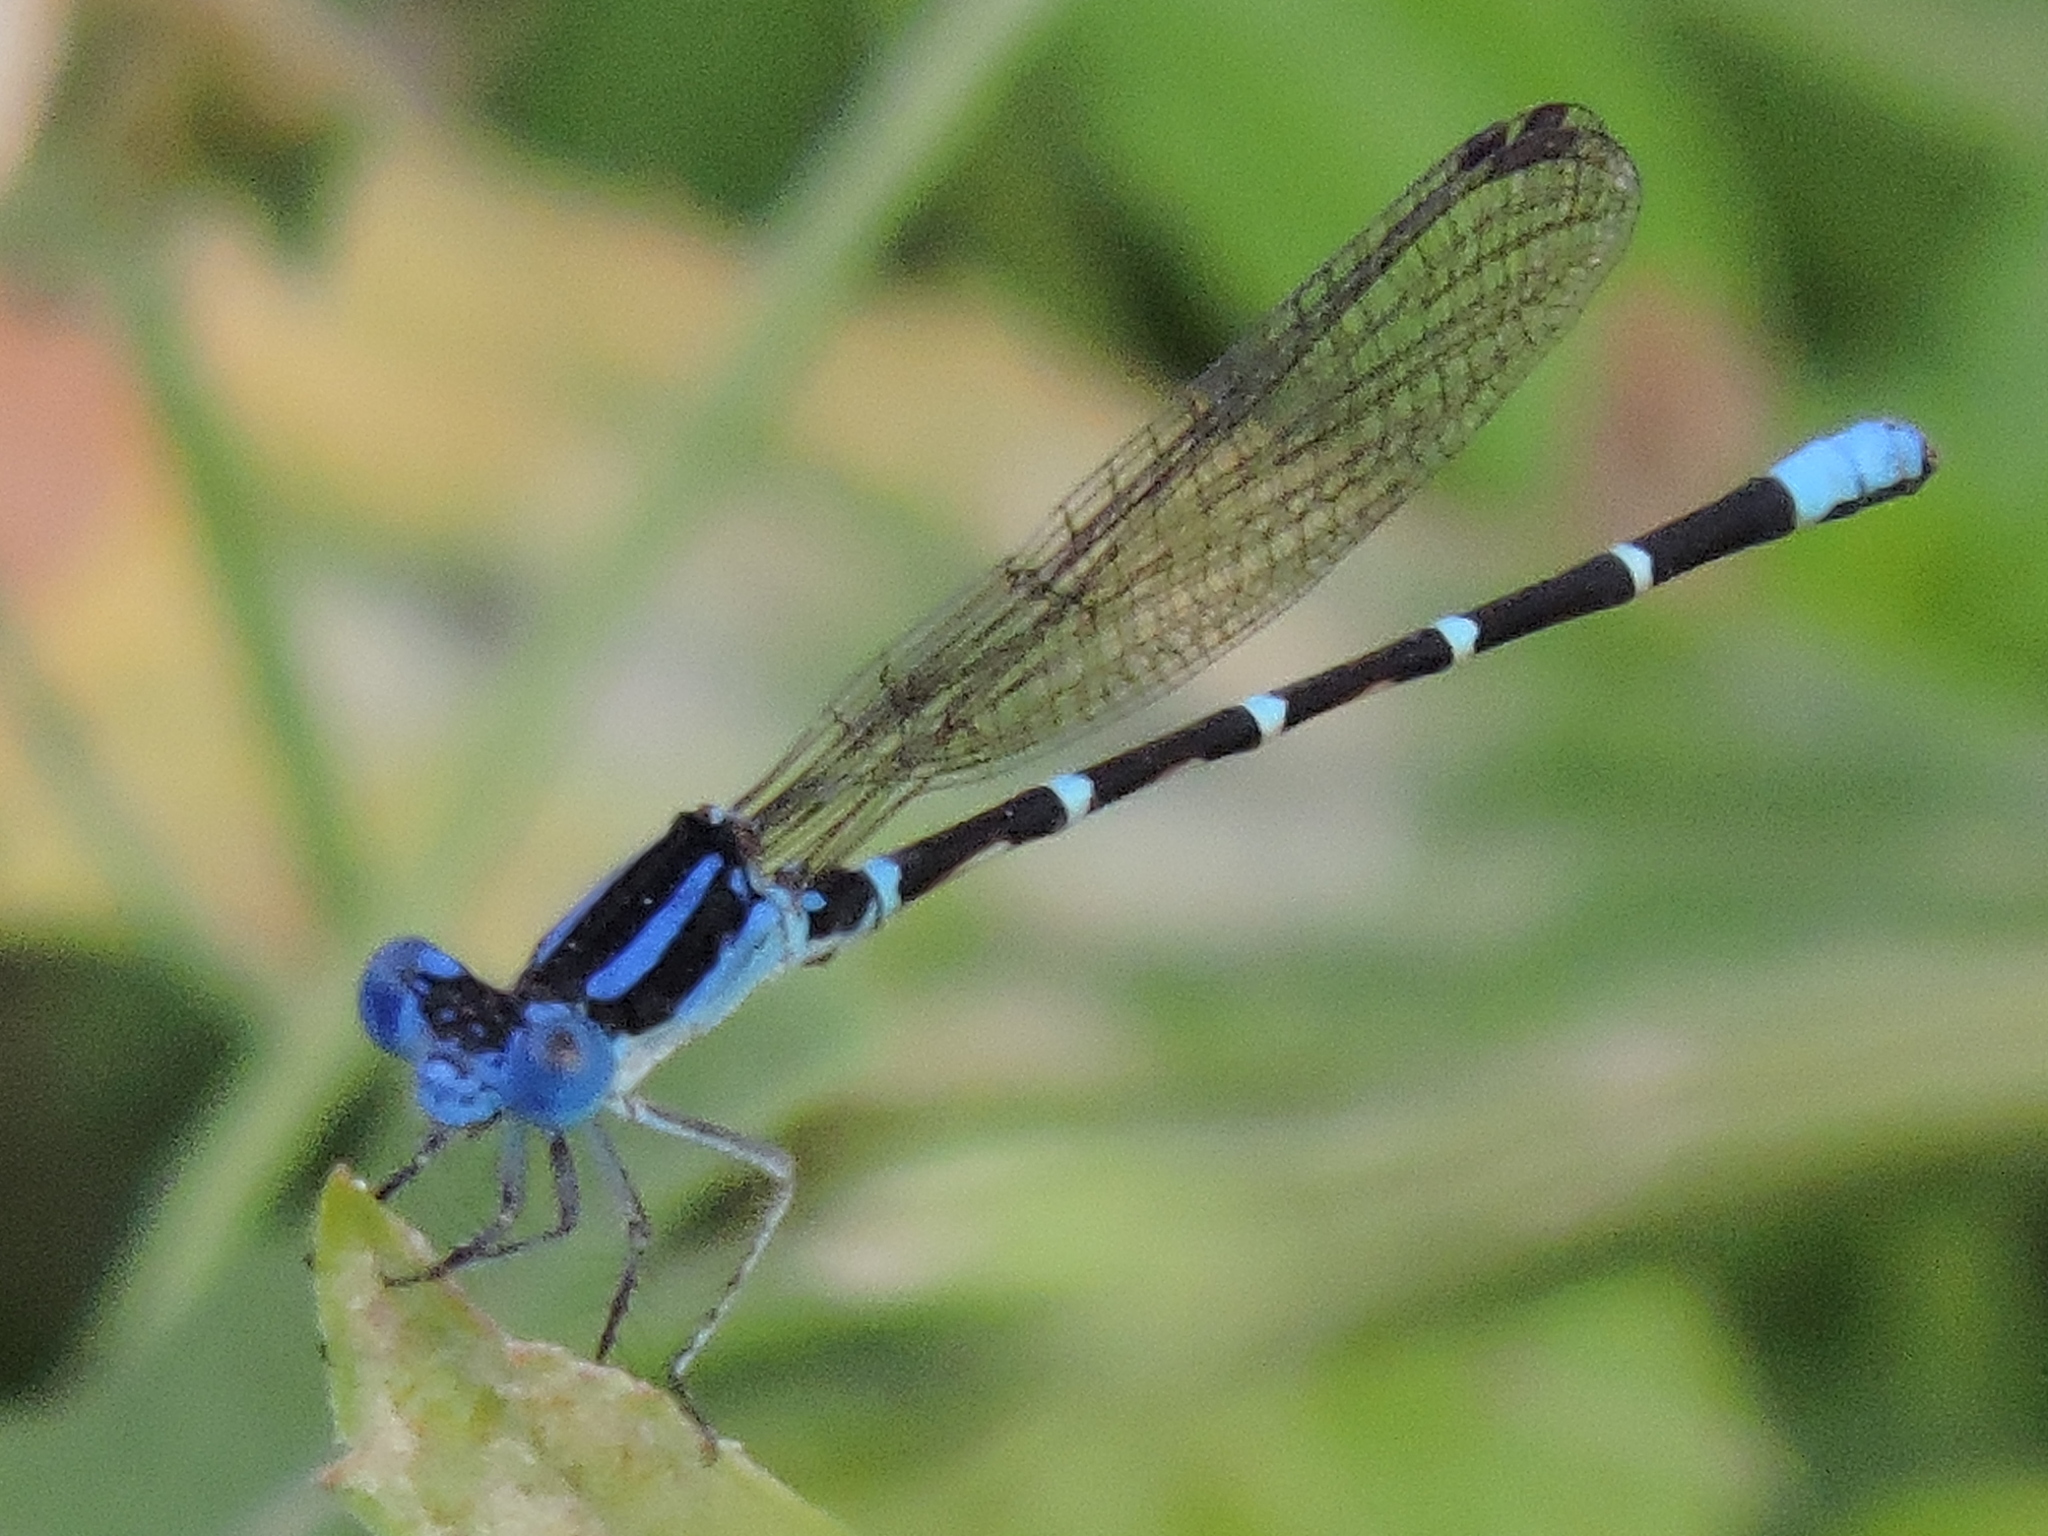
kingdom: Animalia
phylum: Arthropoda
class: Insecta
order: Odonata
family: Coenagrionidae
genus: Argia
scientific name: Argia sedula
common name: Blue-ringed dancer
